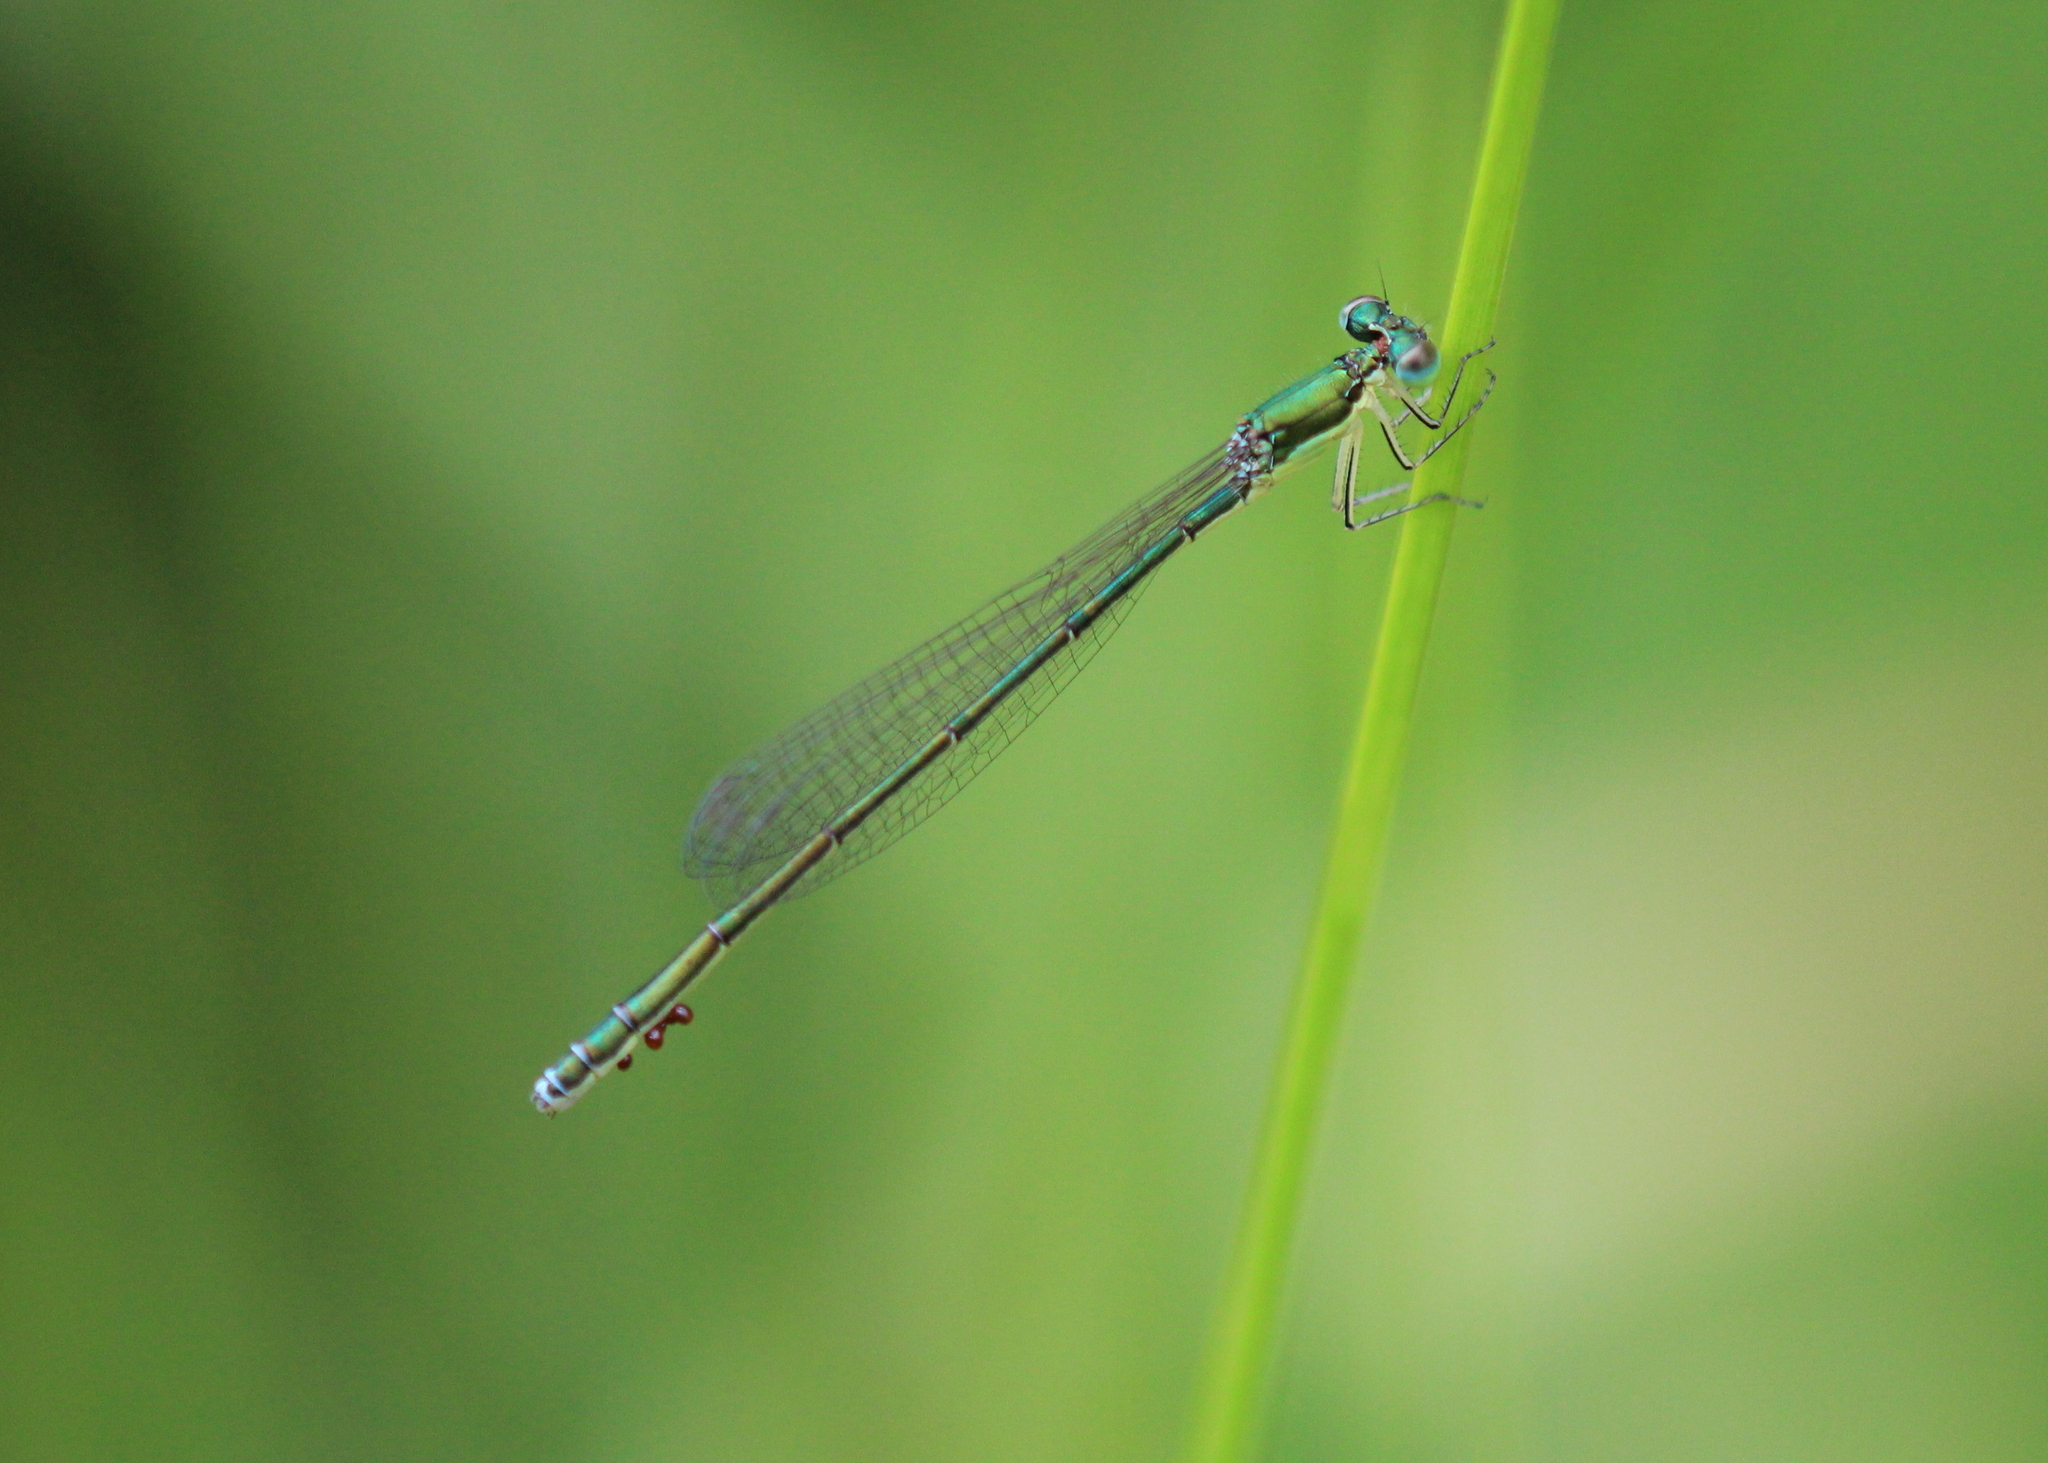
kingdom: Animalia
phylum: Arthropoda
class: Insecta
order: Odonata
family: Coenagrionidae
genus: Nehalennia
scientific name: Nehalennia irene
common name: Sedge sprite
